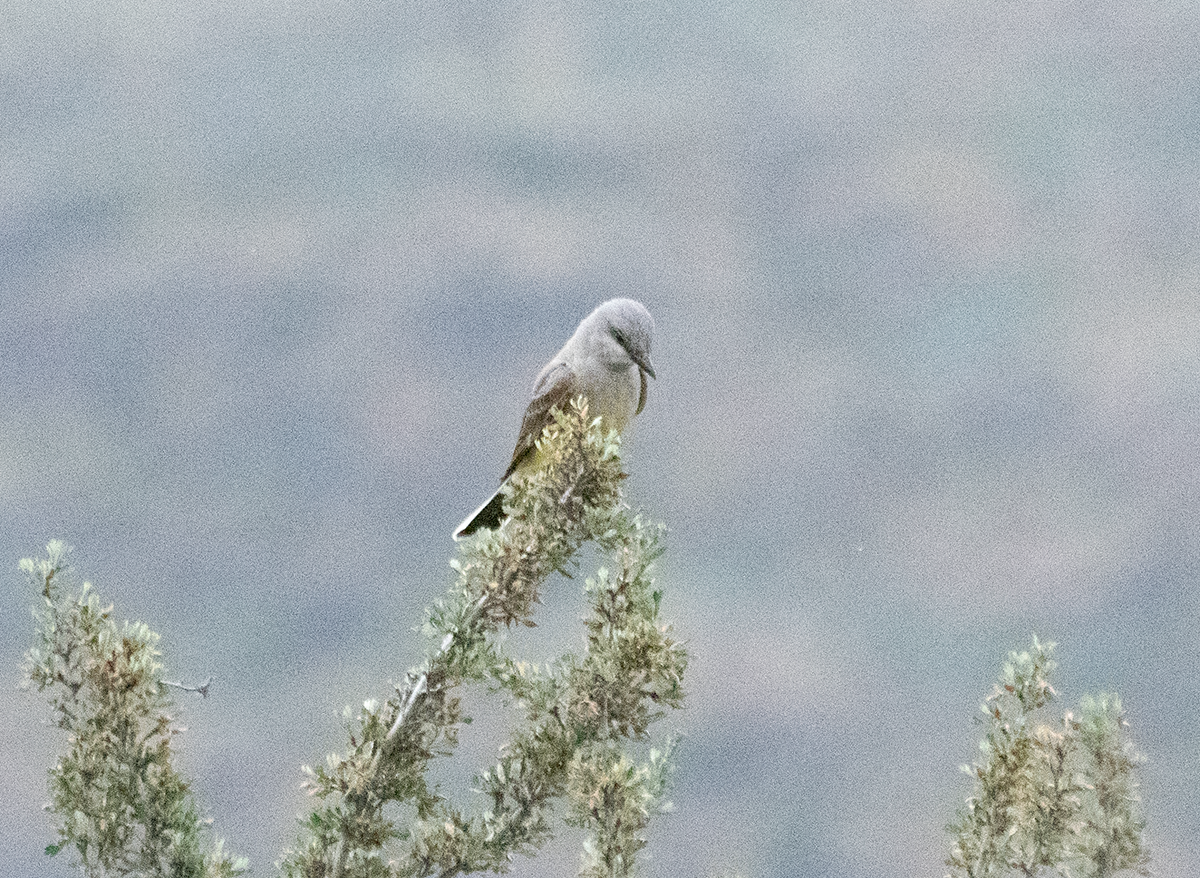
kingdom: Animalia
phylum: Chordata
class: Aves
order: Passeriformes
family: Tyrannidae
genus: Tyrannus
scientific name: Tyrannus verticalis
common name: Western kingbird
